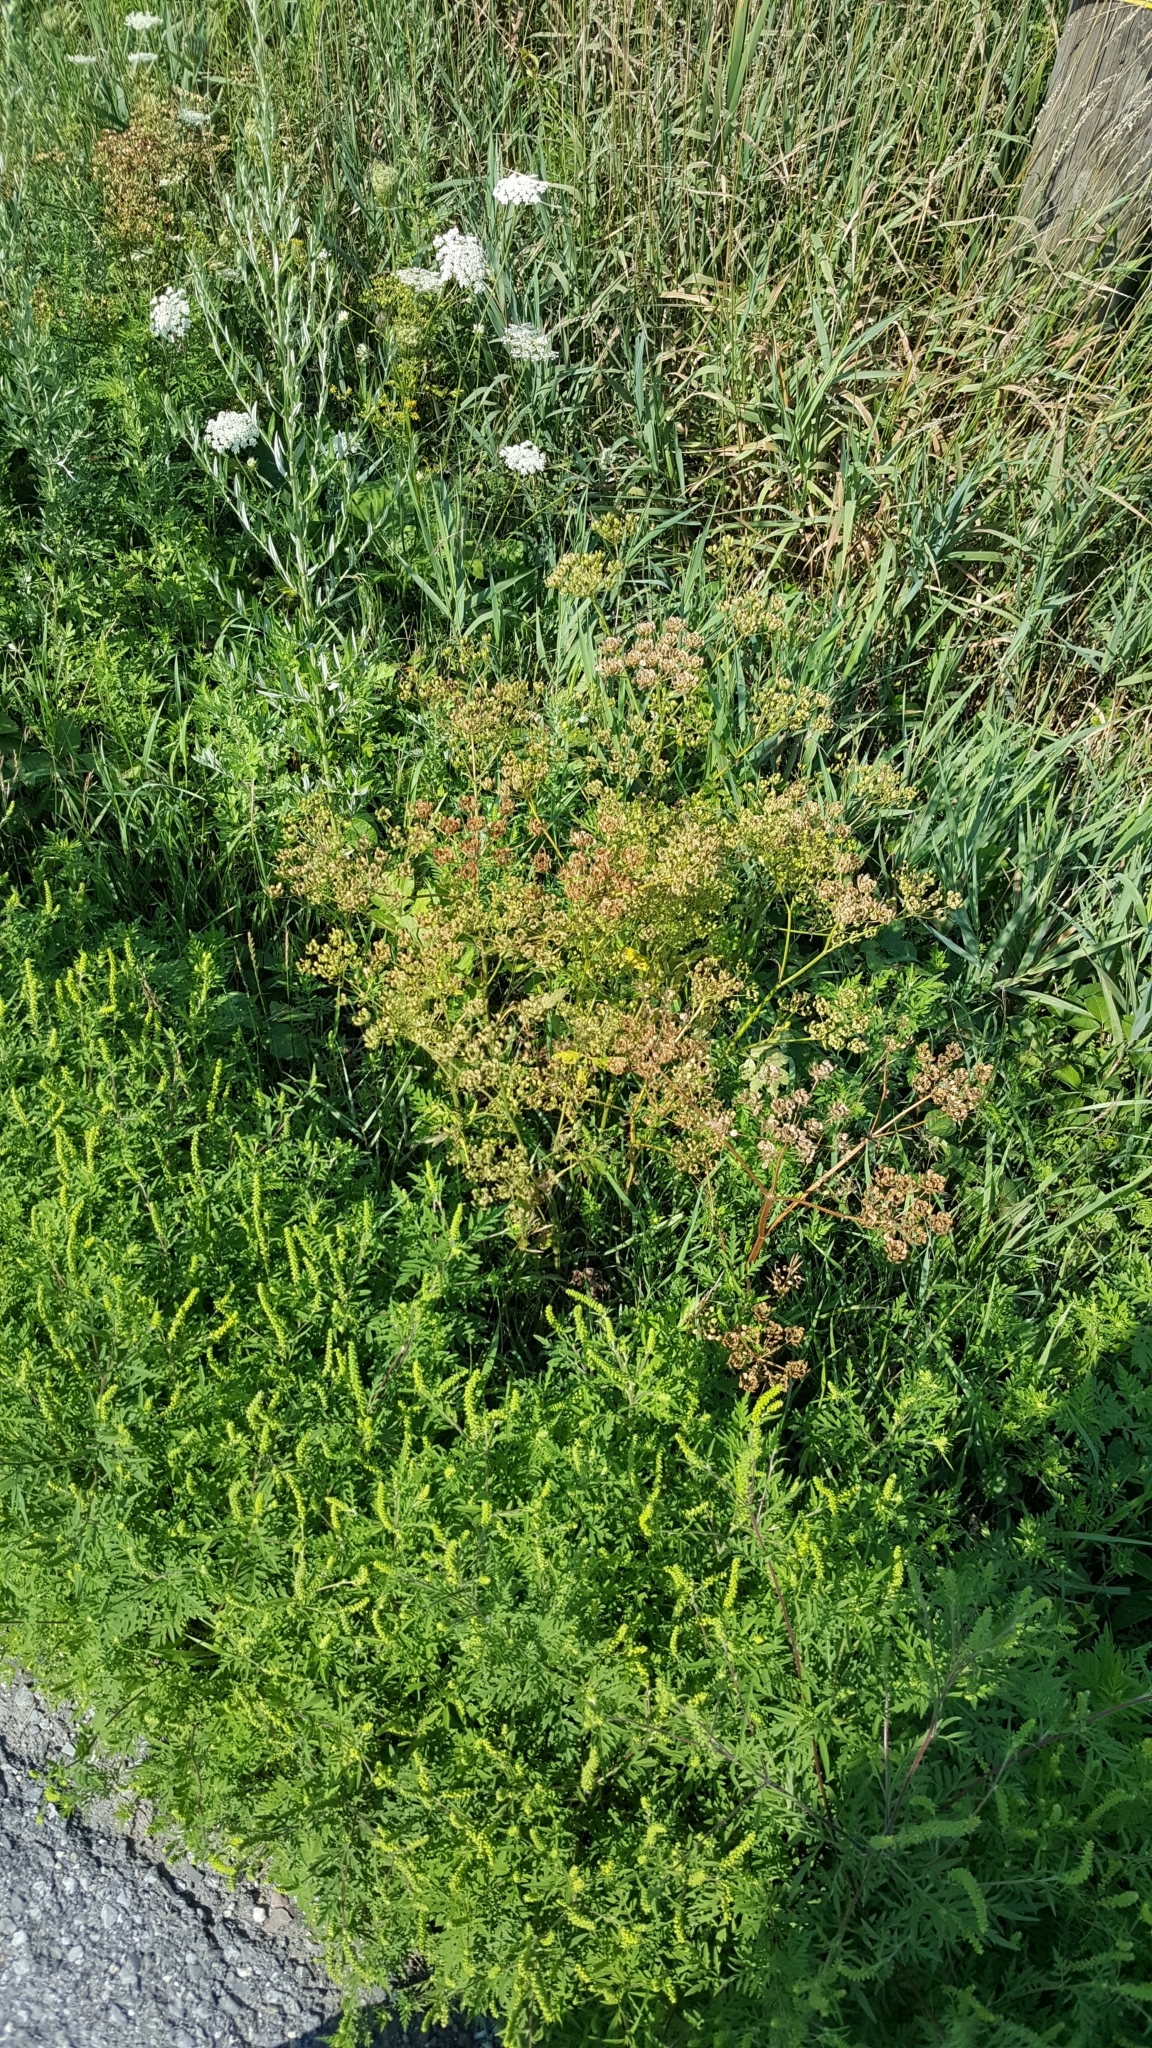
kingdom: Plantae
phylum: Tracheophyta
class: Magnoliopsida
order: Apiales
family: Apiaceae
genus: Pastinaca
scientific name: Pastinaca sativa
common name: Wild parsnip
